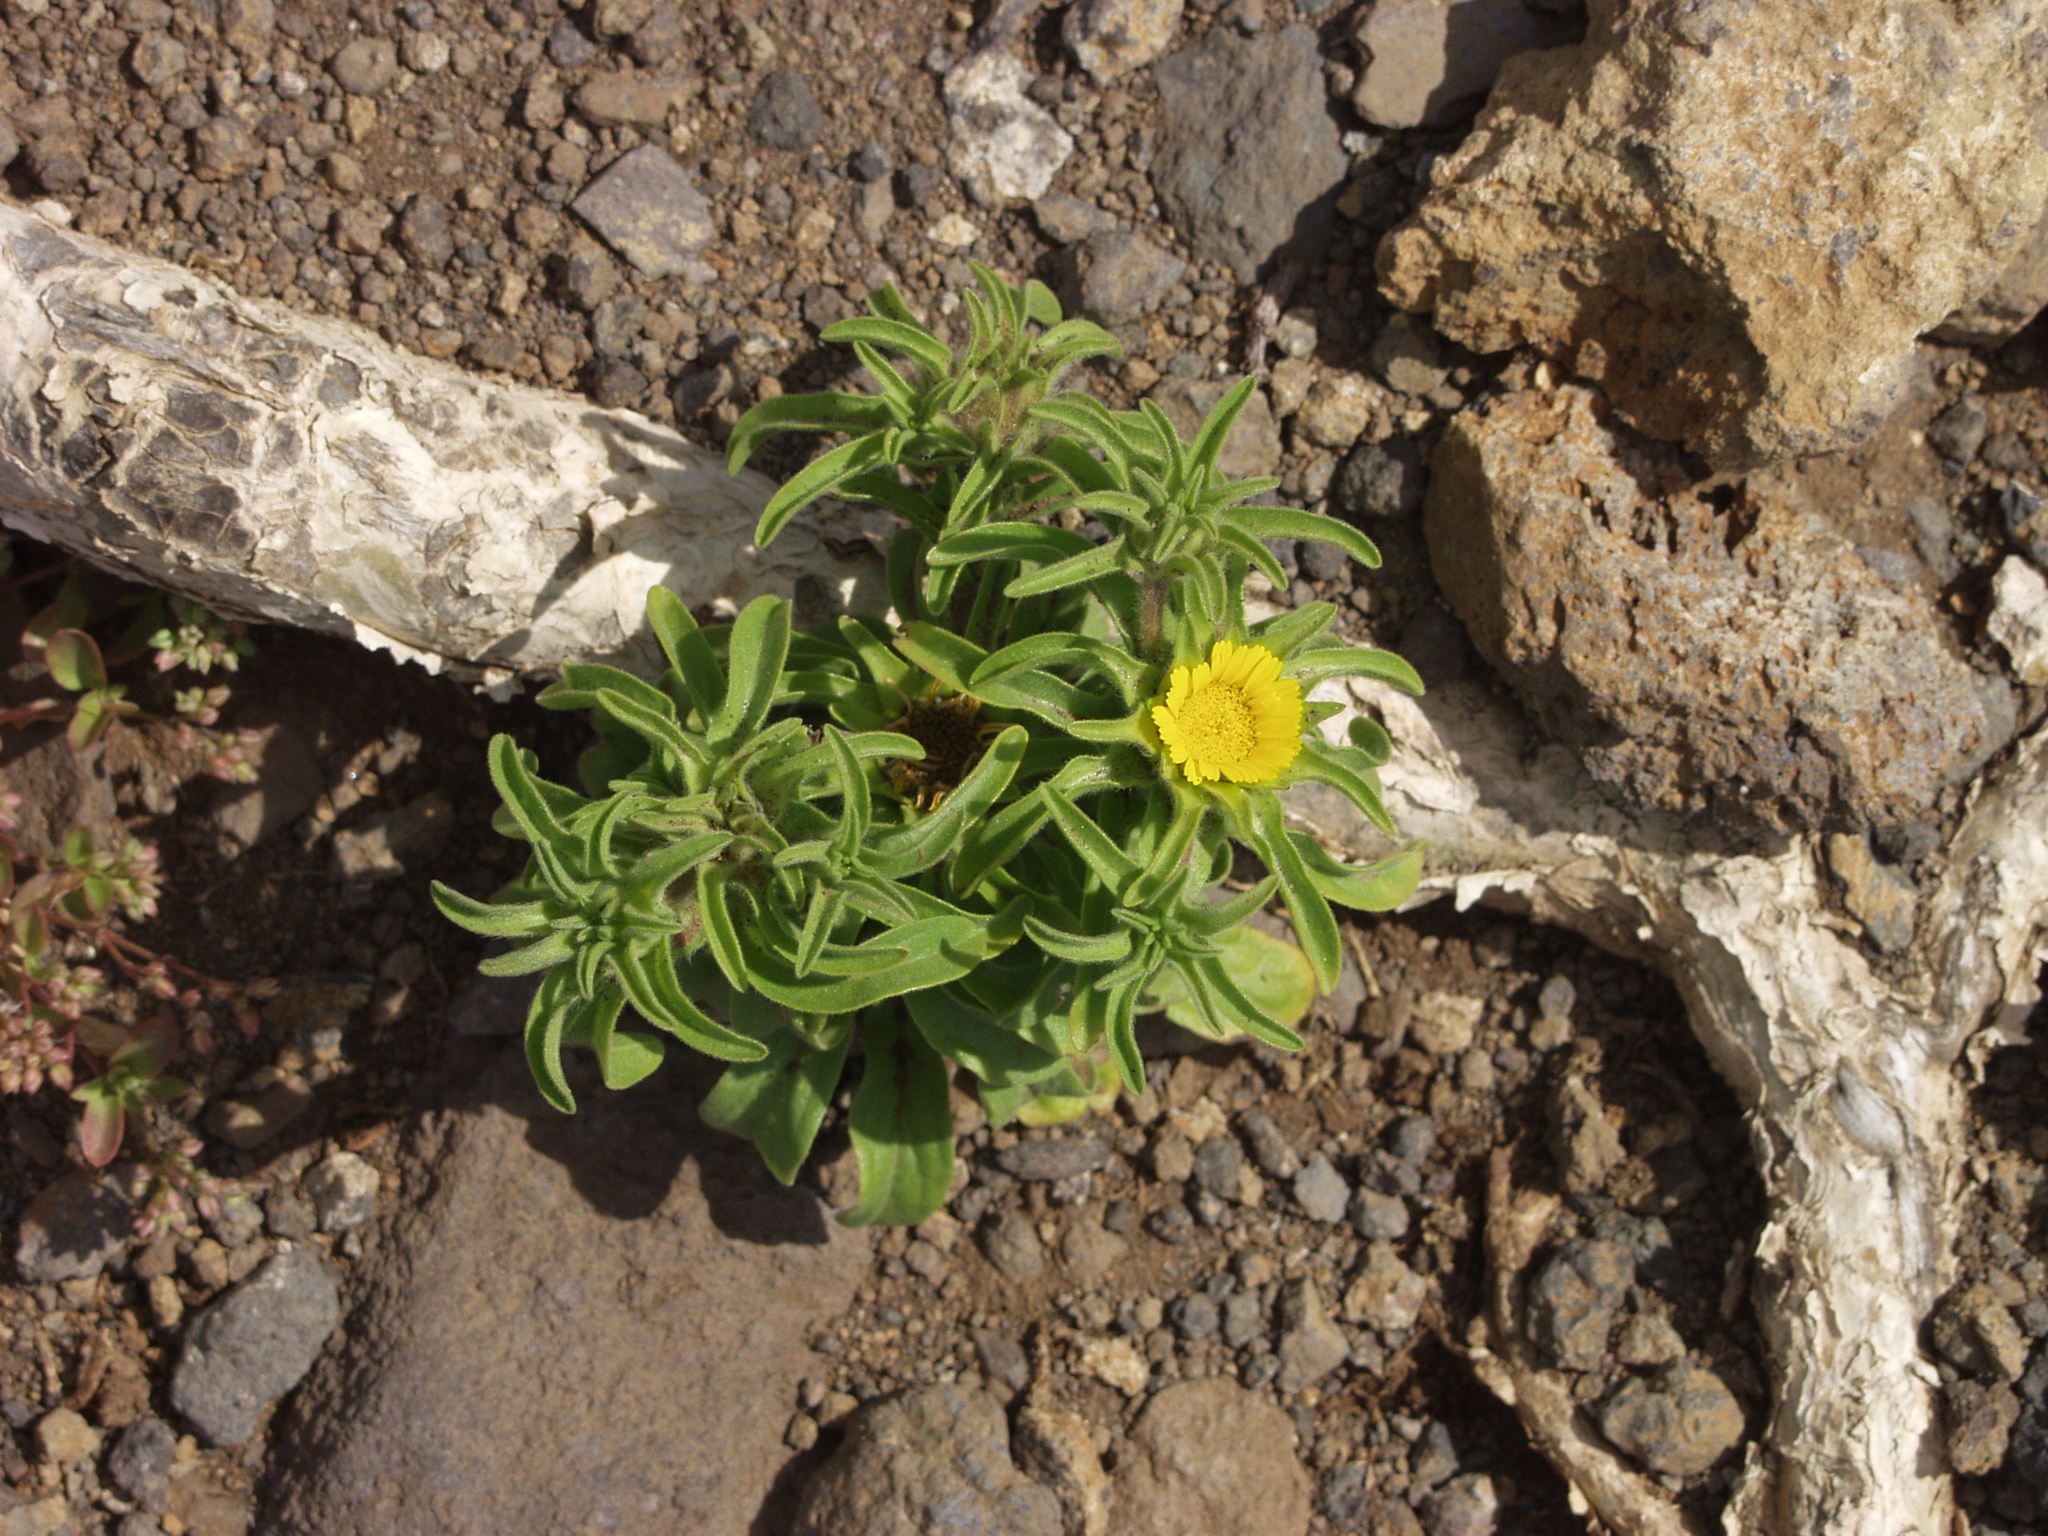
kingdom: Plantae
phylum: Tracheophyta
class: Magnoliopsida
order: Asterales
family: Asteraceae
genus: Asteriscus
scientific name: Asteriscus aquaticus
